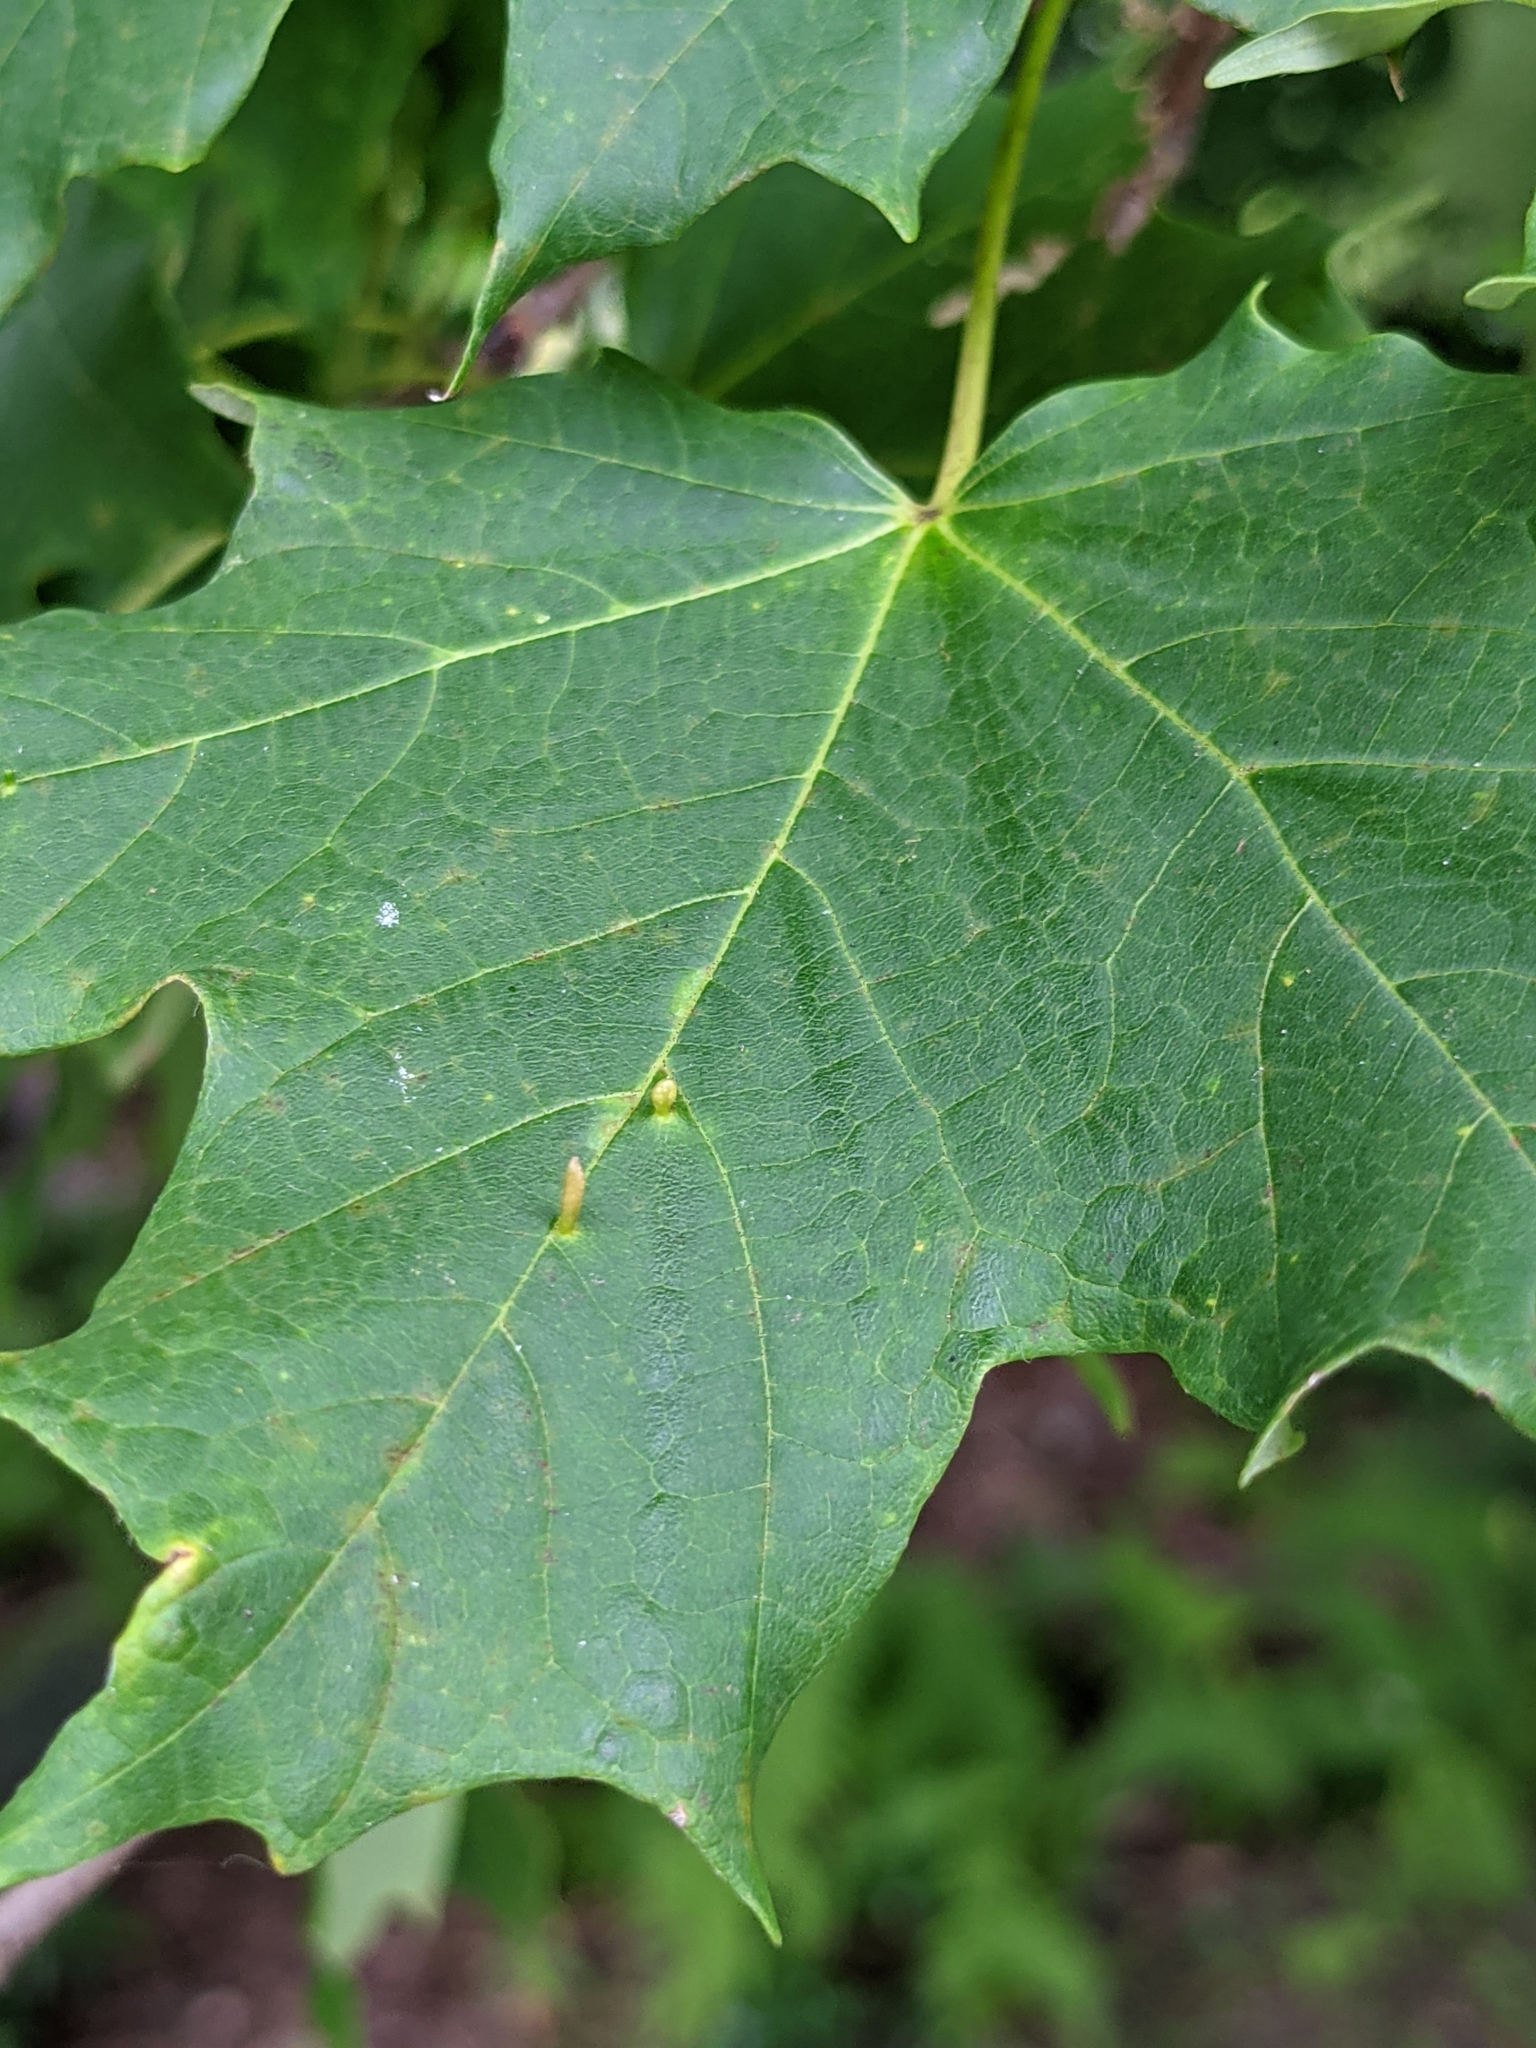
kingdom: Animalia
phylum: Arthropoda
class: Arachnida
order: Trombidiformes
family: Eriophyidae
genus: Vasates
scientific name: Vasates aceriscrumena
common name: Maple spindle gall mite
